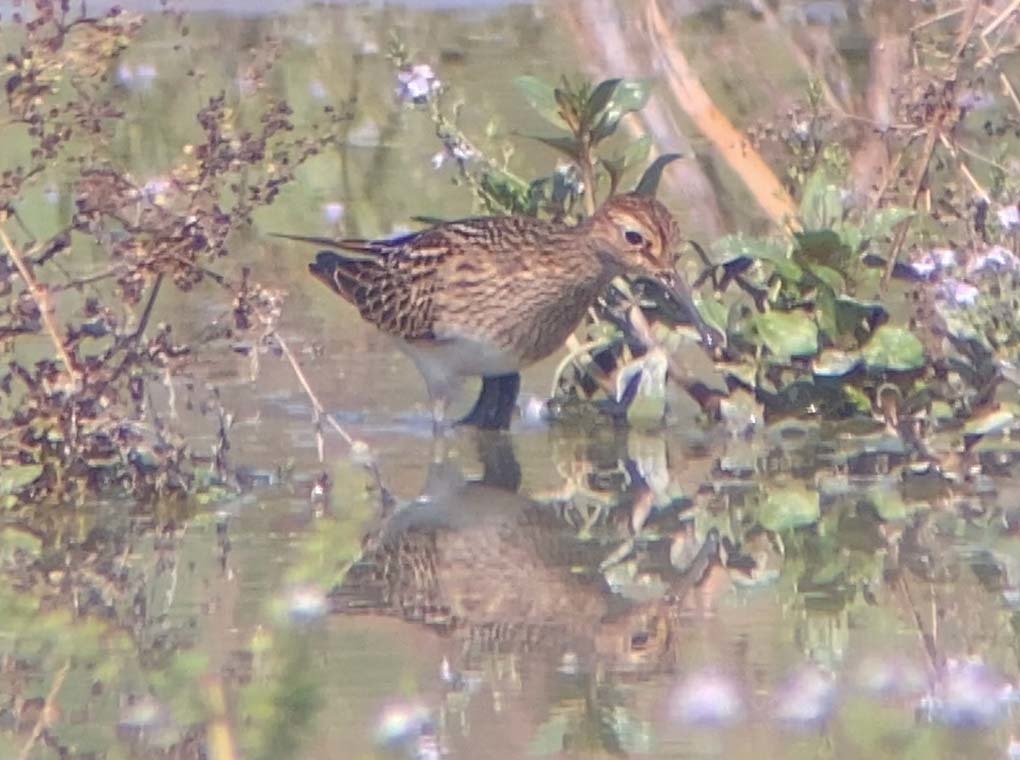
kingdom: Animalia
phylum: Chordata
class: Aves
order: Charadriiformes
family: Scolopacidae
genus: Calidris
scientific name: Calidris melanotos
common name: Pectoral sandpiper
